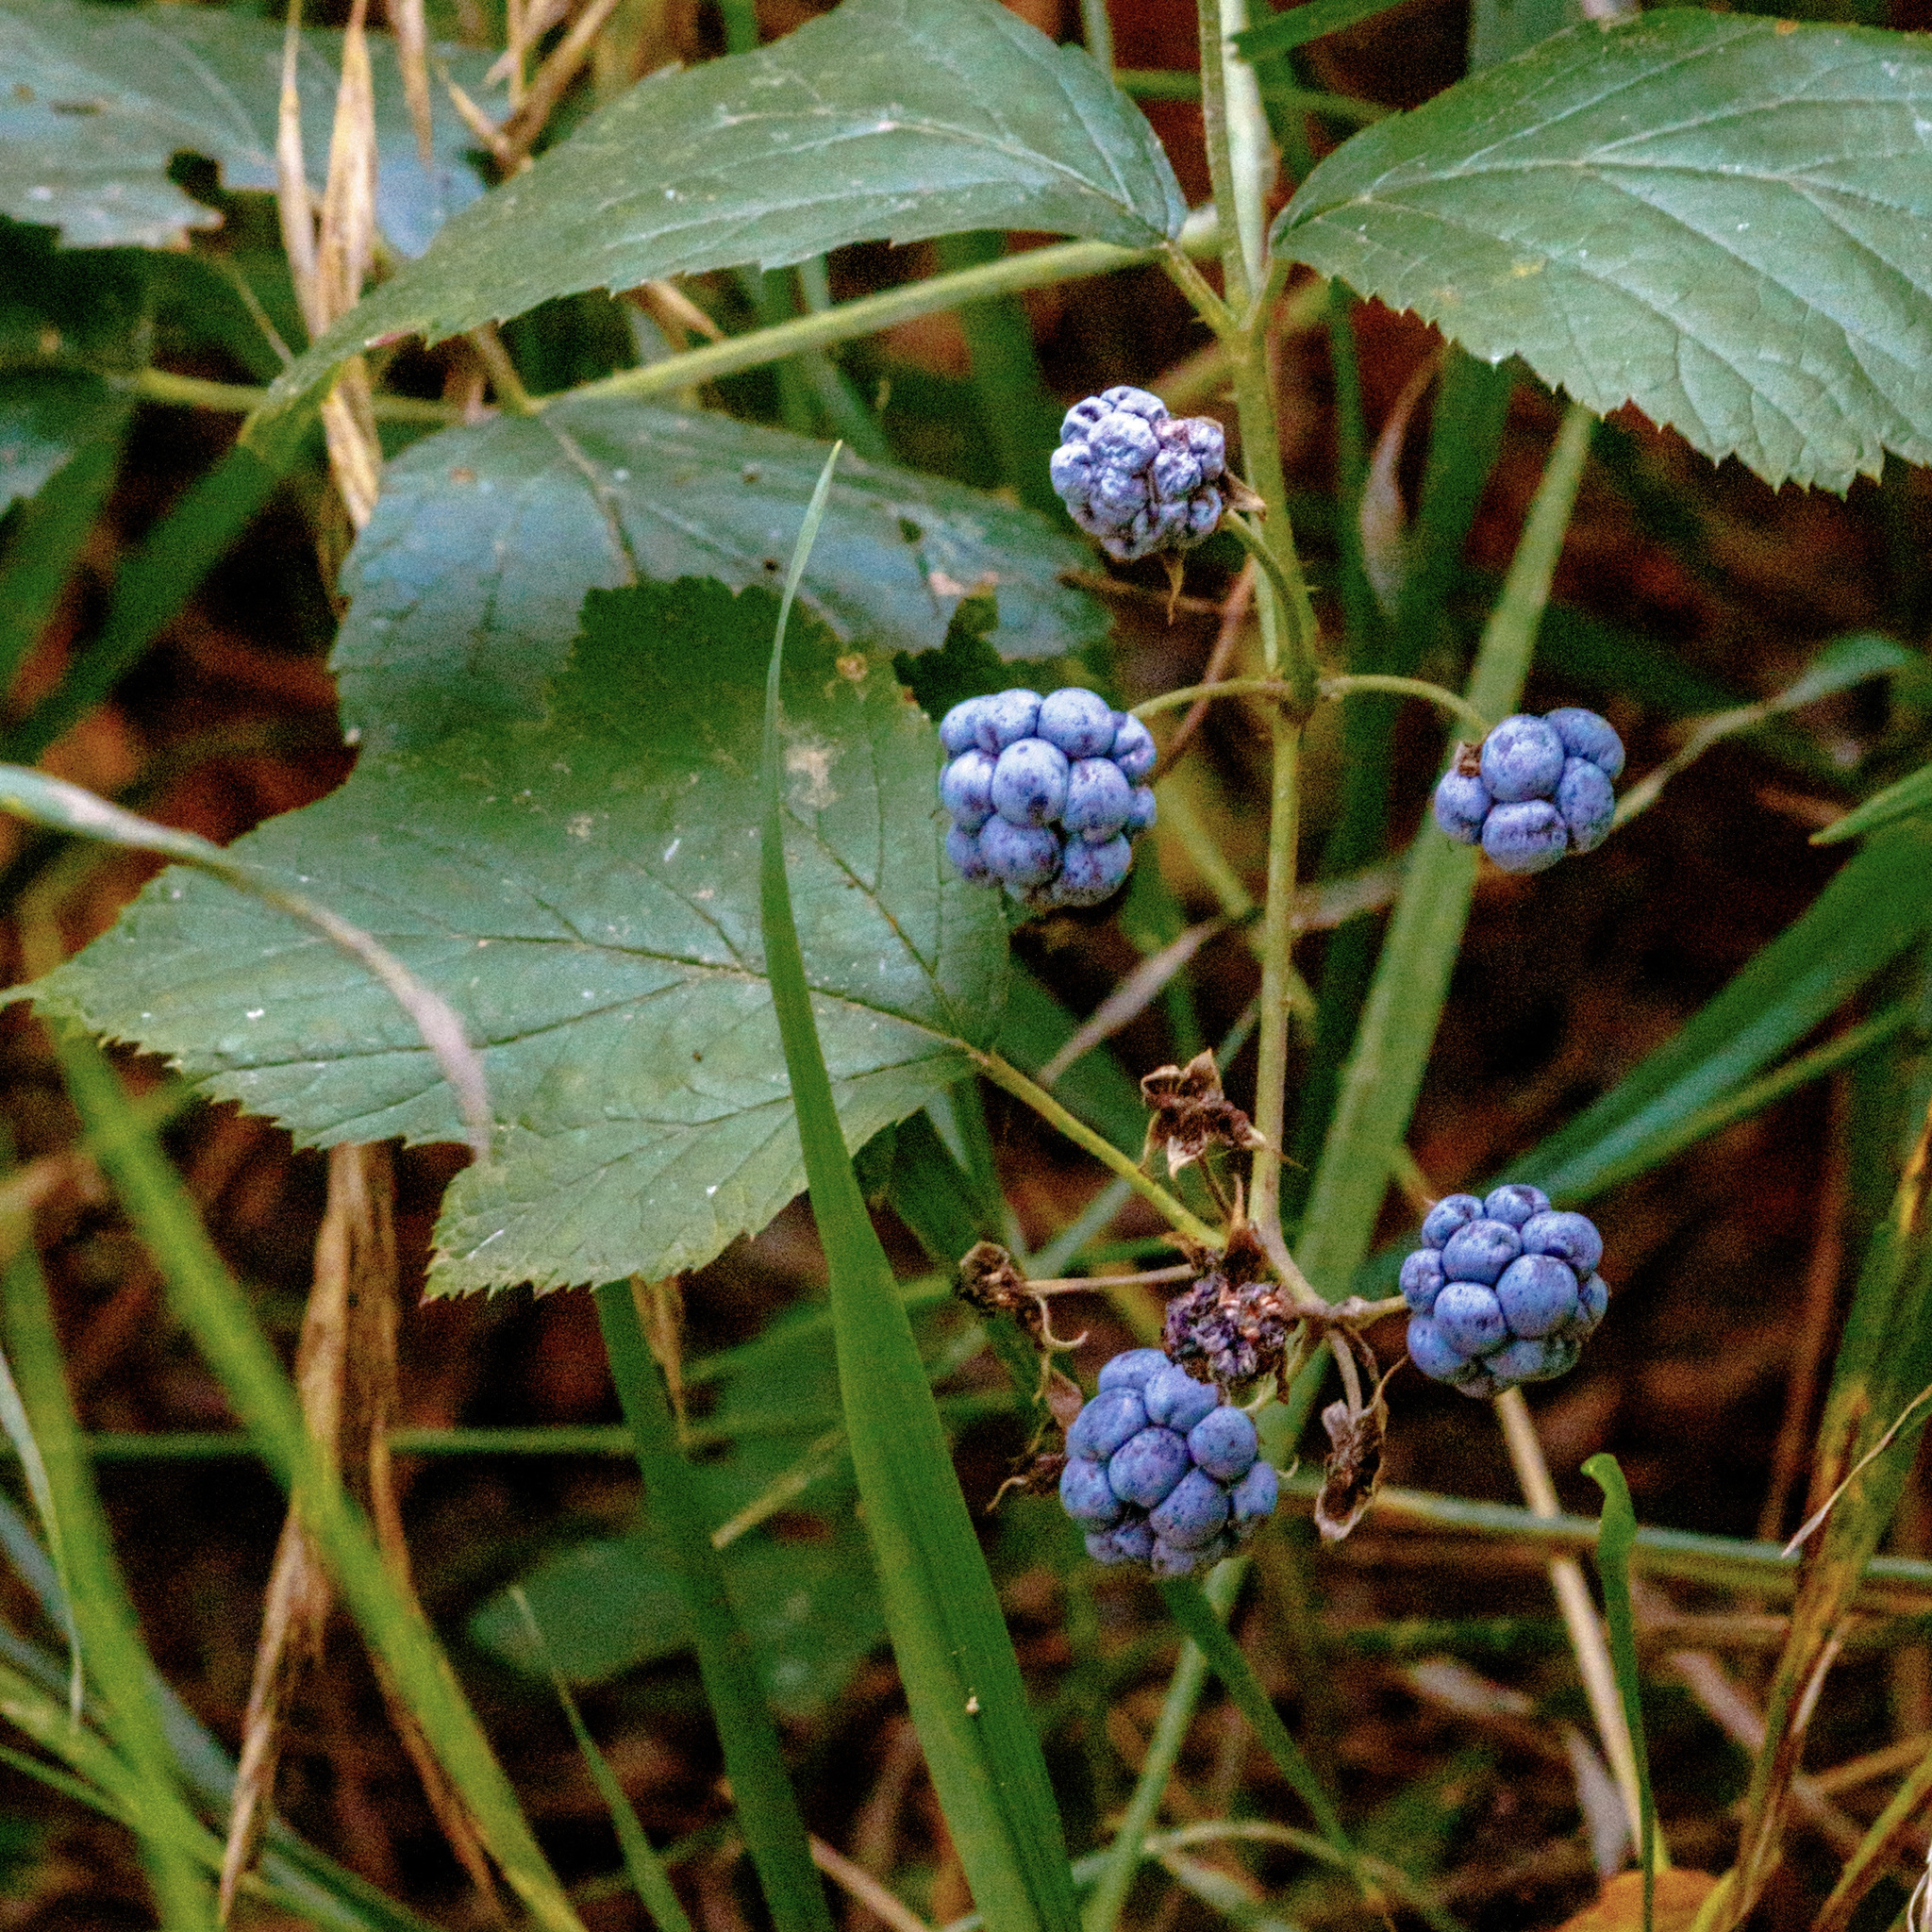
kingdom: Plantae
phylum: Tracheophyta
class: Magnoliopsida
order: Rosales
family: Rosaceae
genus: Rubus
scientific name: Rubus caesius
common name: Dewberry
